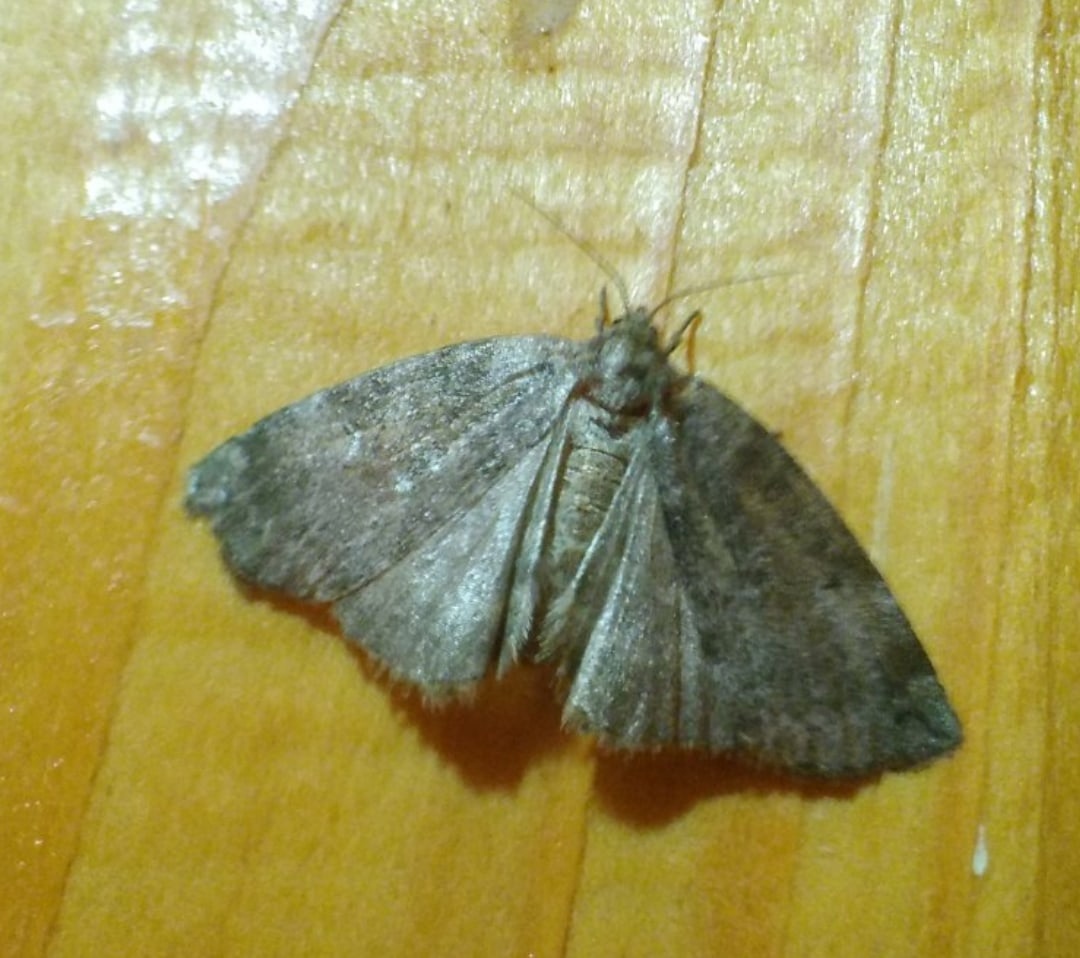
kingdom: Animalia
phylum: Arthropoda
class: Insecta
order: Lepidoptera
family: Drepanidae
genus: Ochropacha
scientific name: Ochropacha duplaris
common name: Common lutestring
